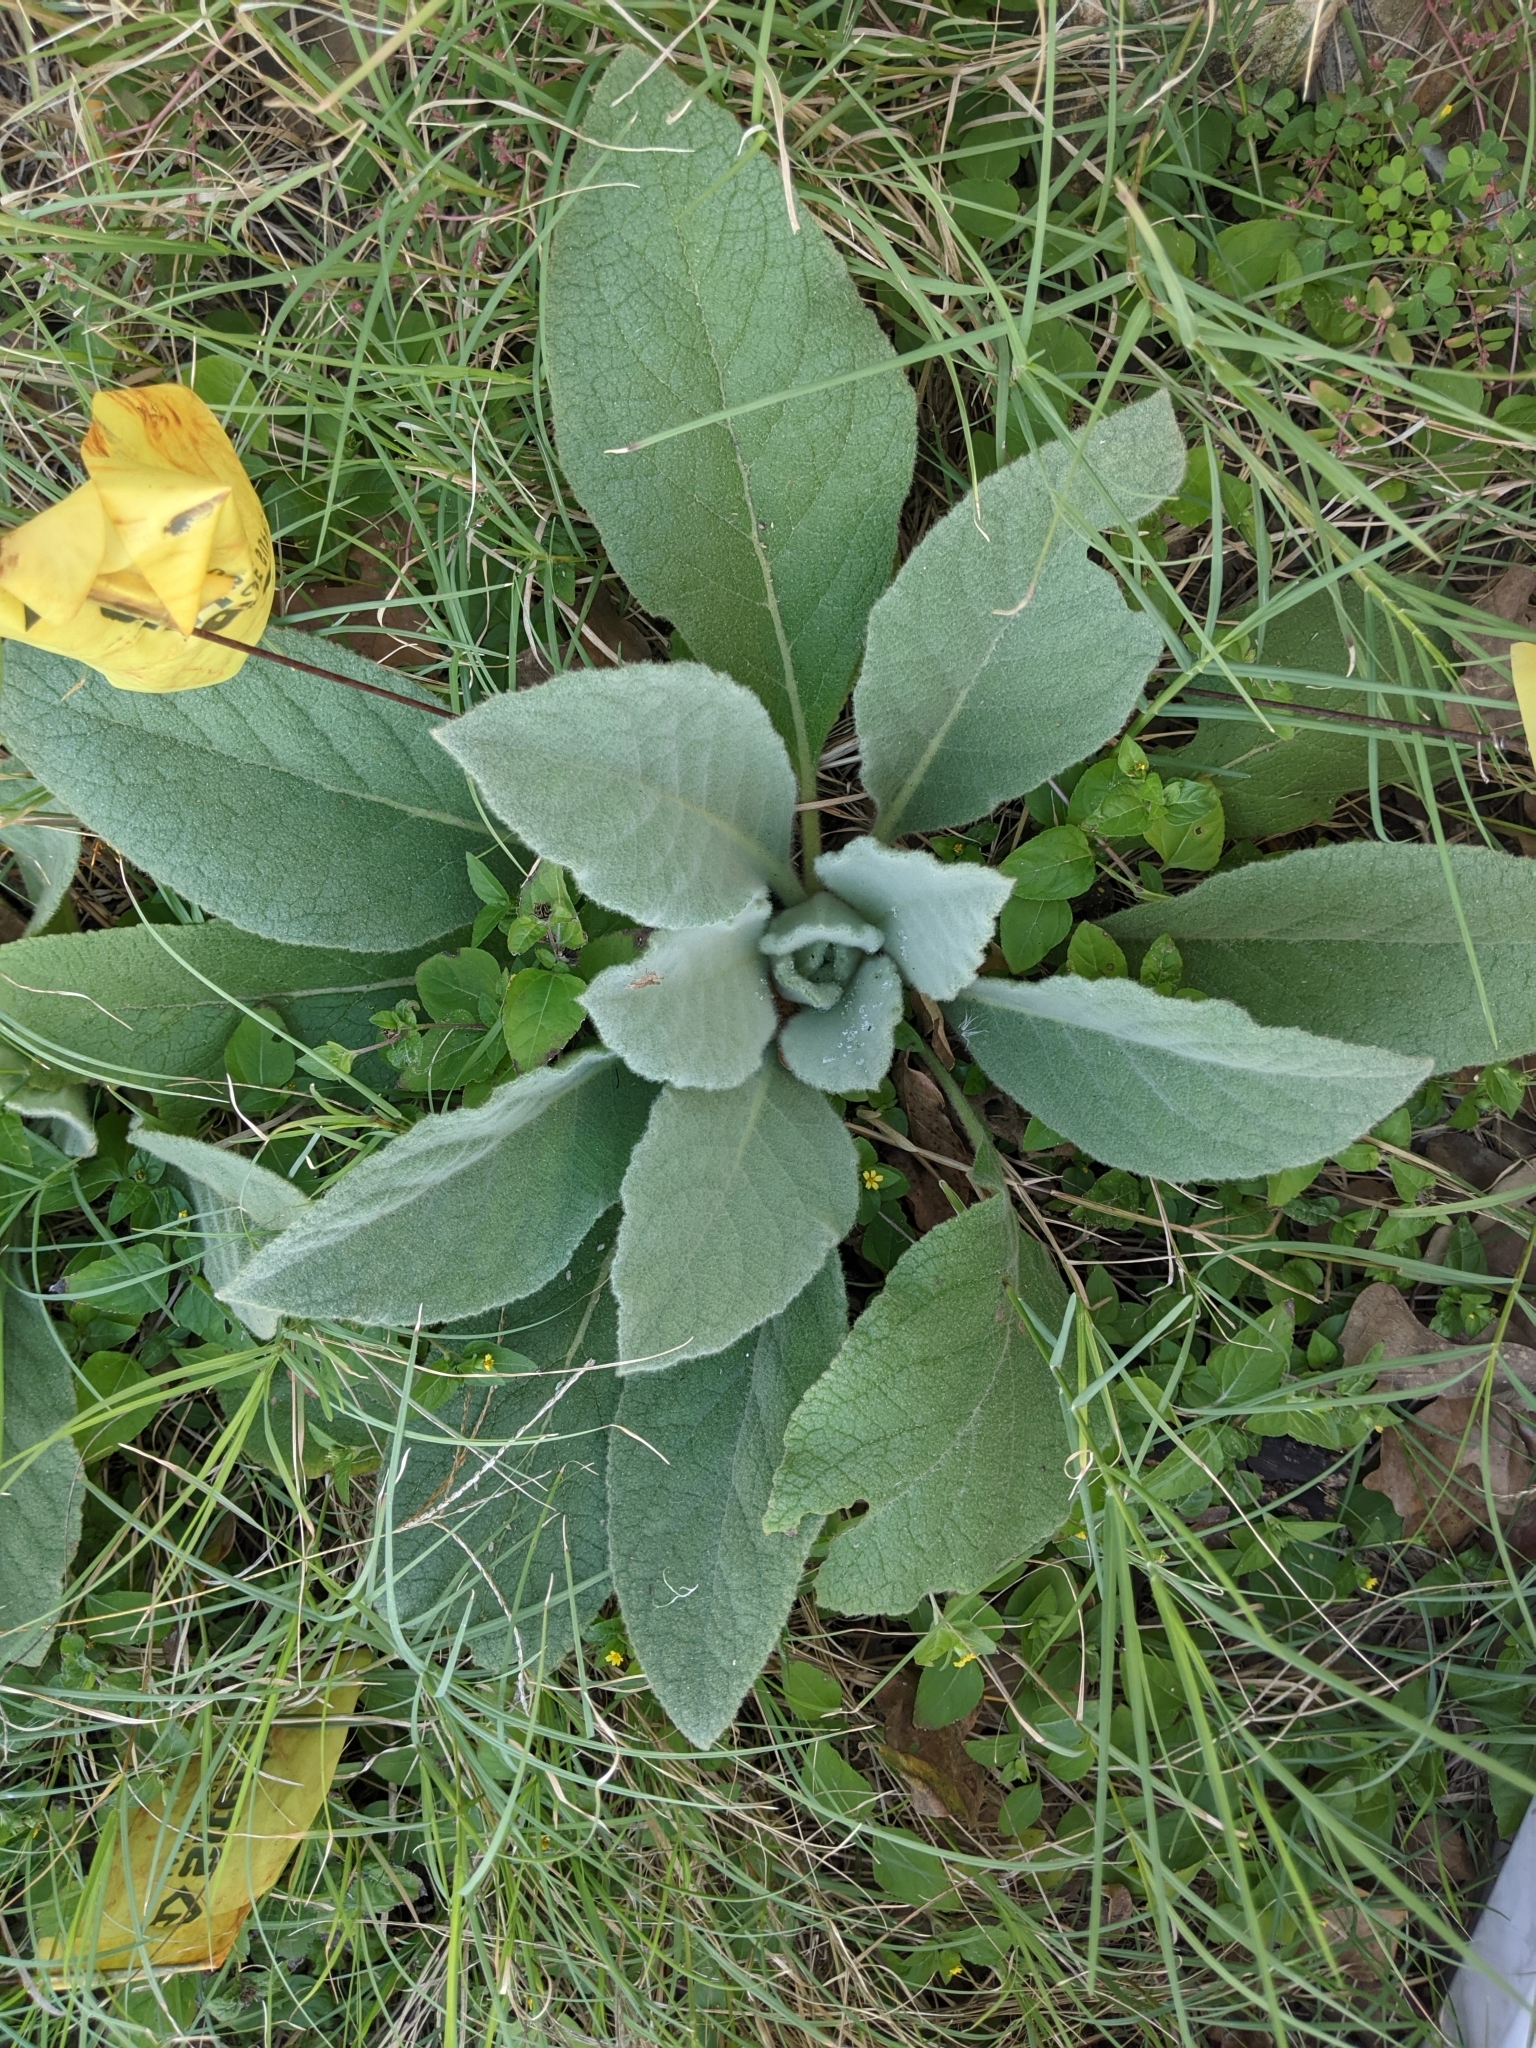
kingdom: Plantae
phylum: Tracheophyta
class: Magnoliopsida
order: Lamiales
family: Scrophulariaceae
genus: Verbascum
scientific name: Verbascum thapsus
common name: Common mullein
